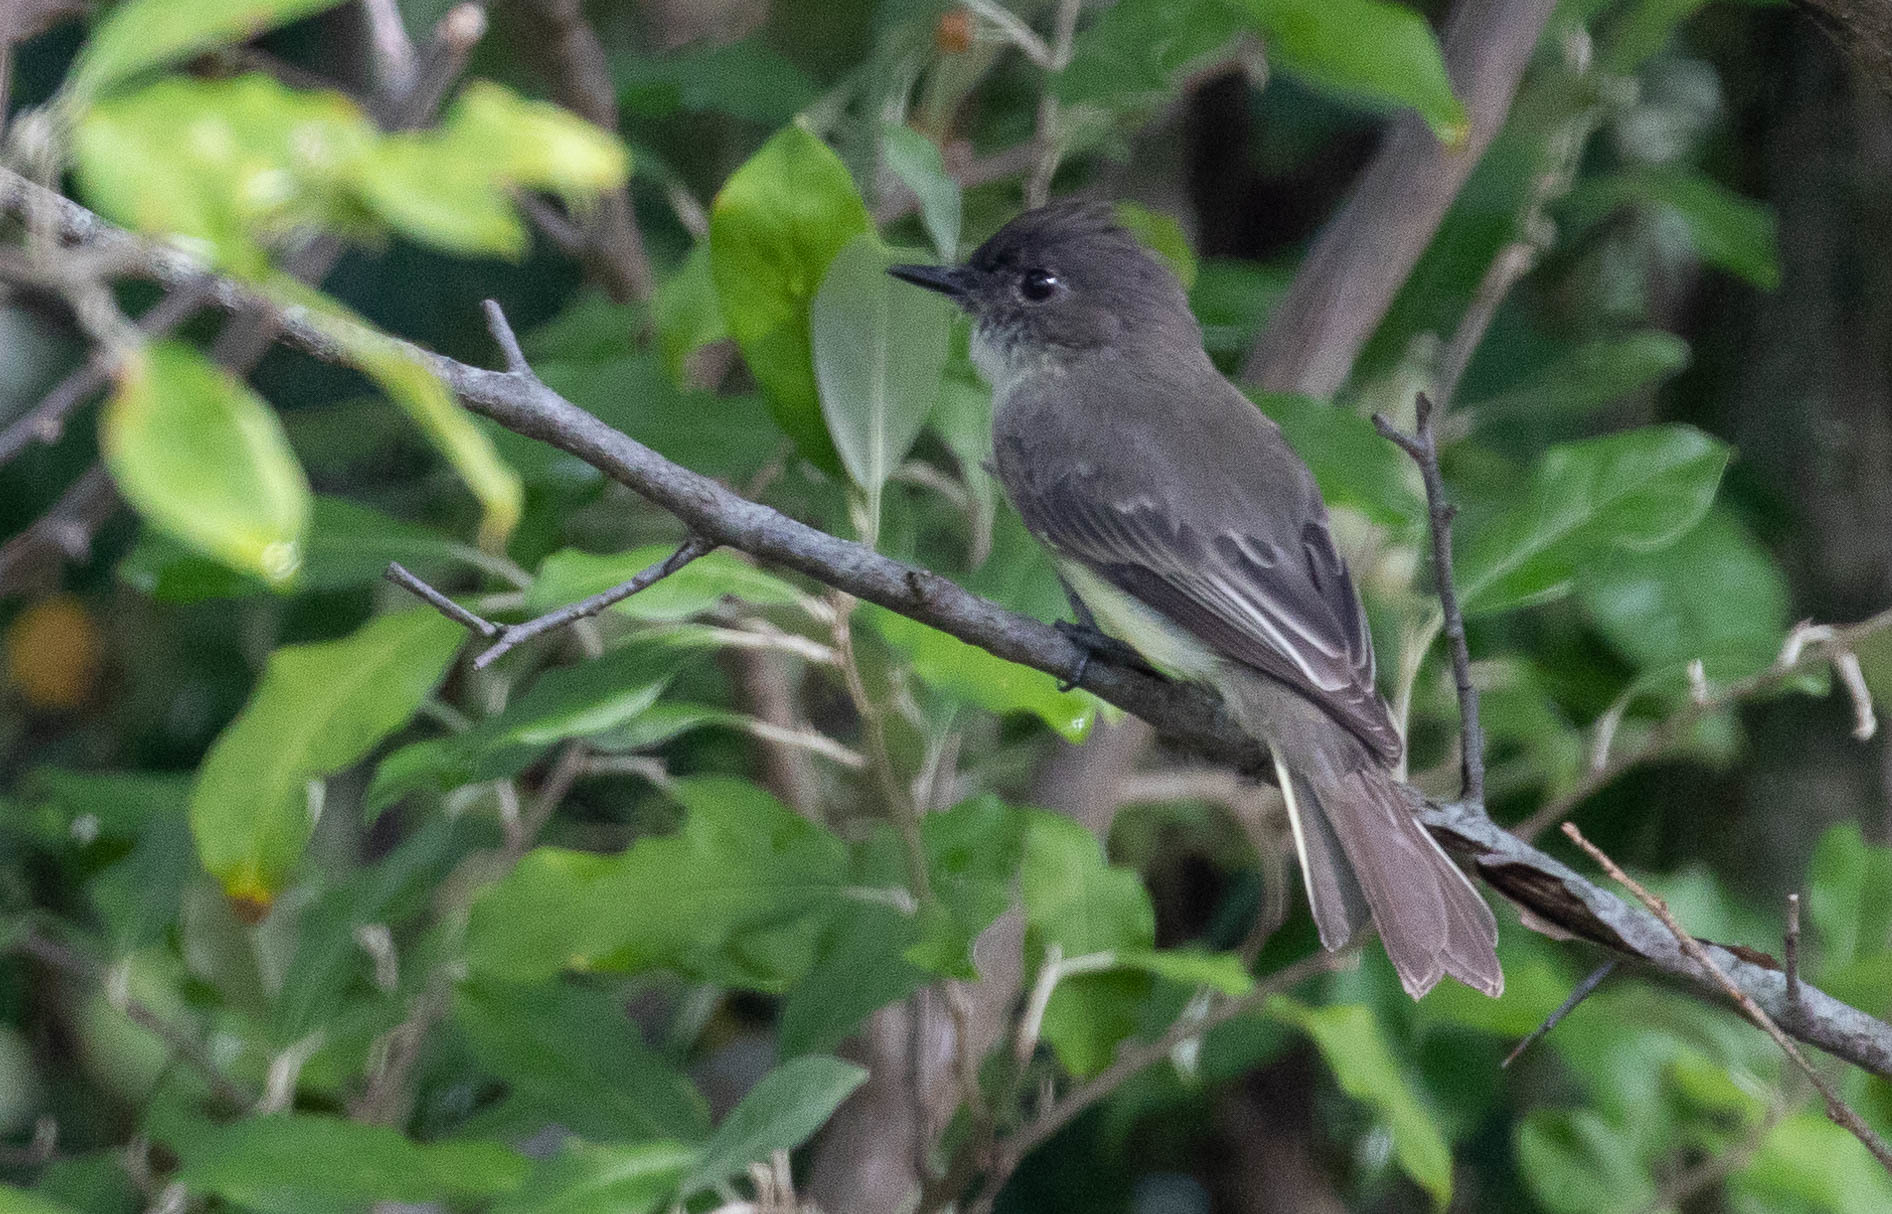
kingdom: Animalia
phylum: Chordata
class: Aves
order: Passeriformes
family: Tyrannidae
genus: Sayornis
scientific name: Sayornis phoebe
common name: Eastern phoebe
